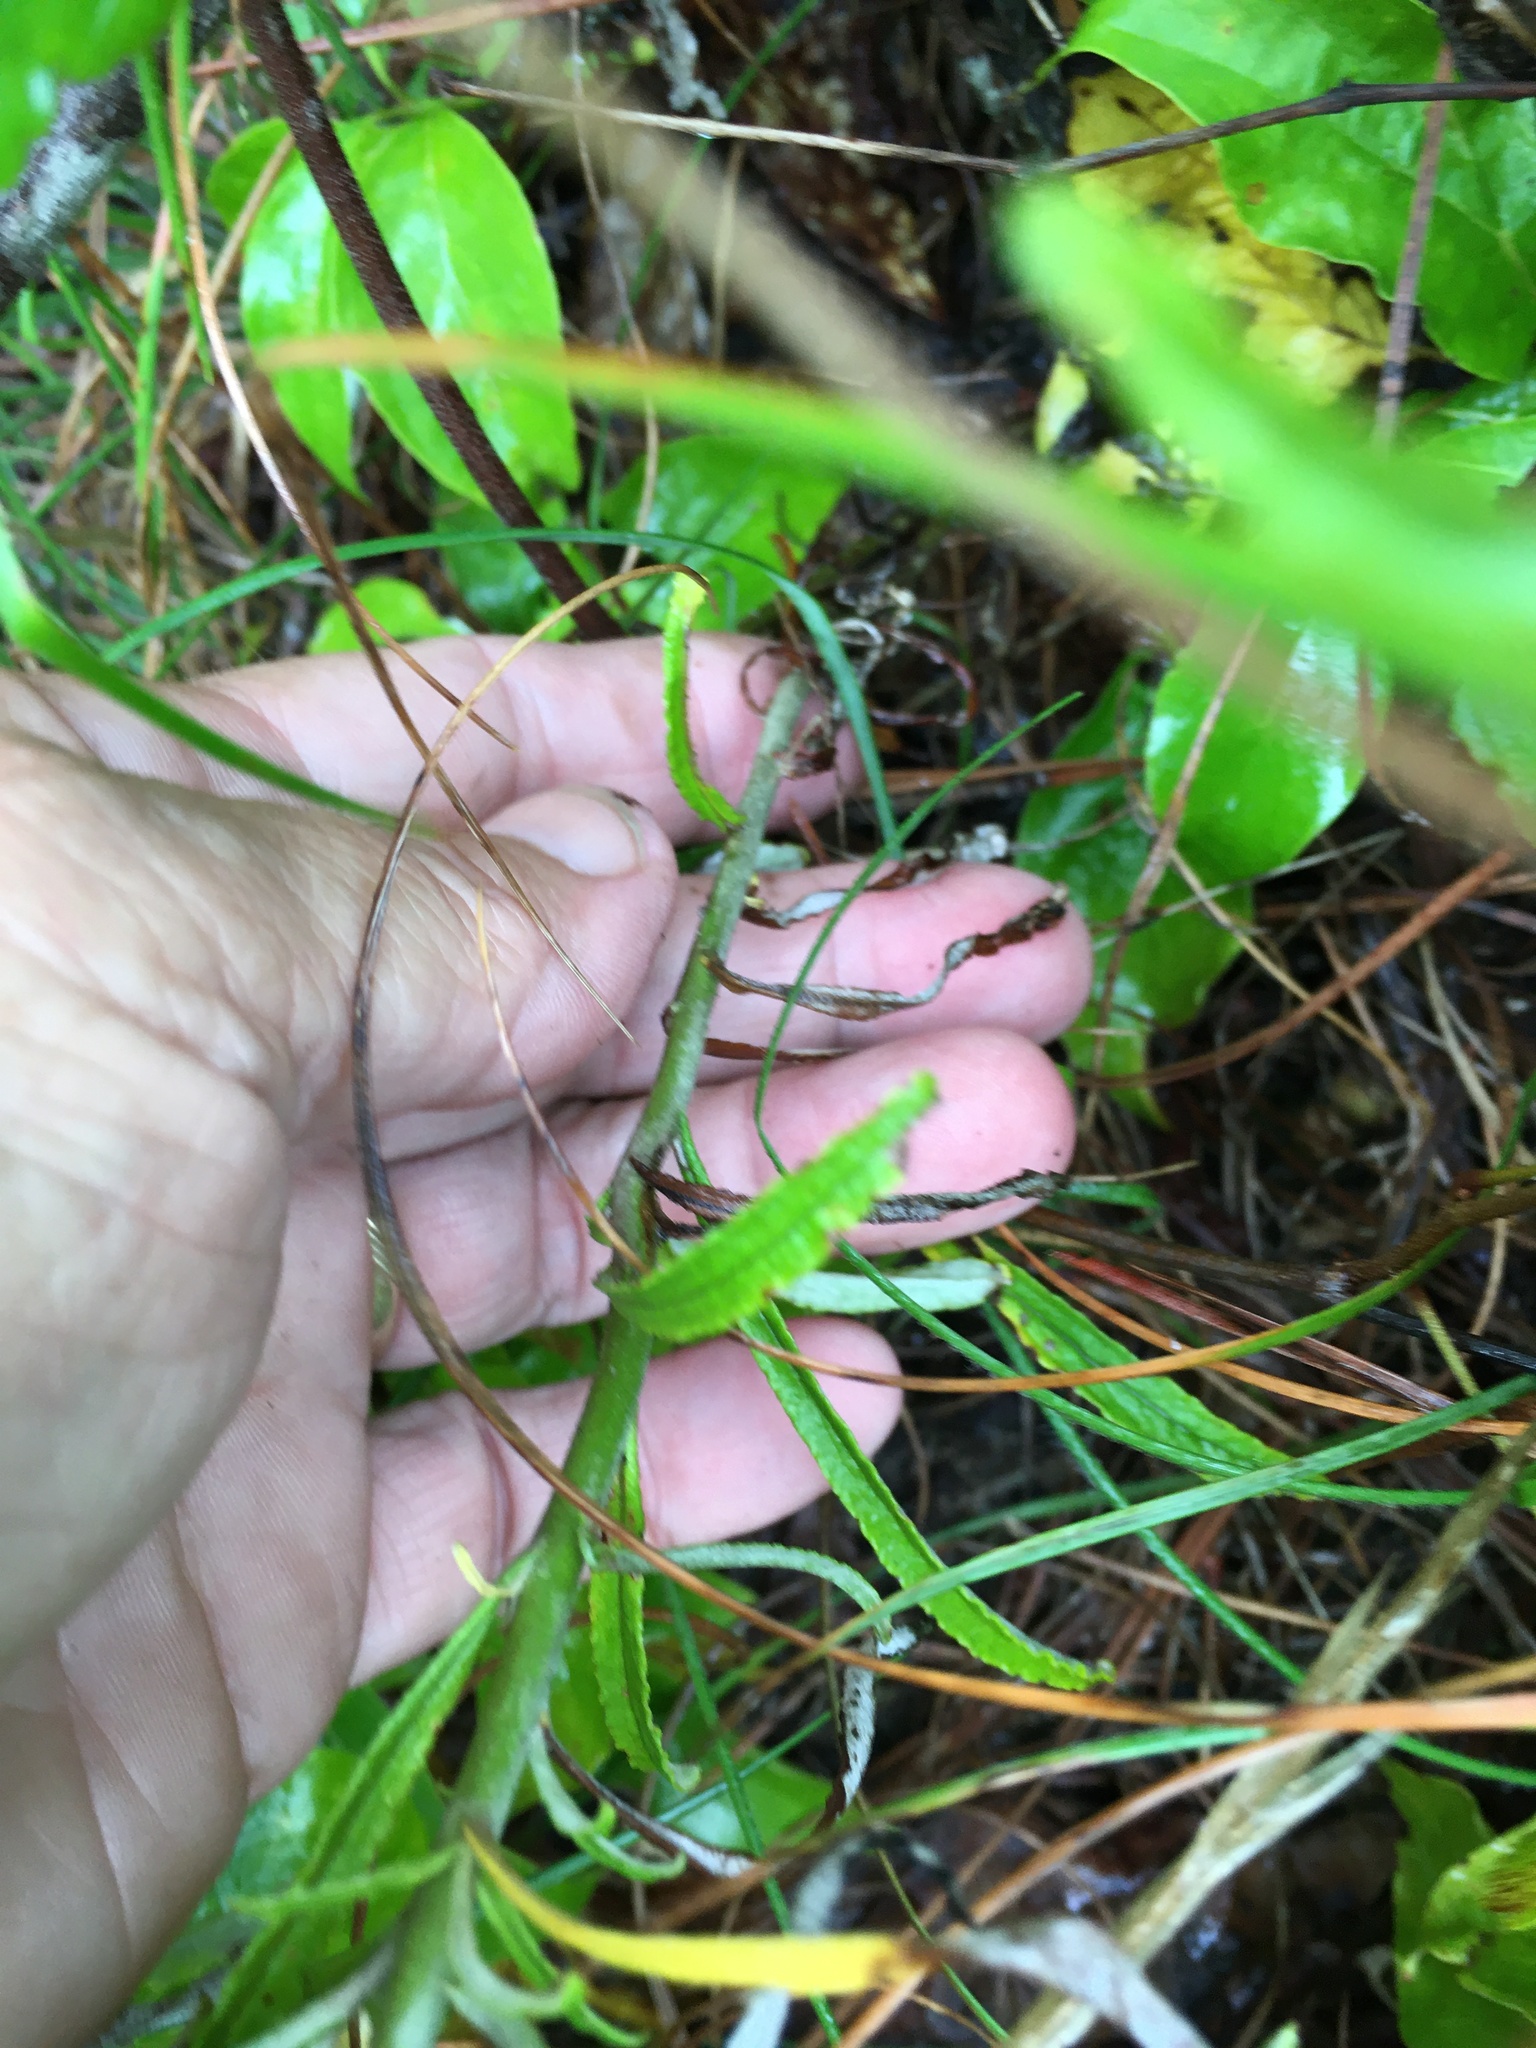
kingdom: Plantae
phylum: Tracheophyta
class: Magnoliopsida
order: Asterales
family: Asteraceae
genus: Pseudognaphalium
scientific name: Pseudognaphalium obtusifolium
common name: Eastern rabbit-tobacco
